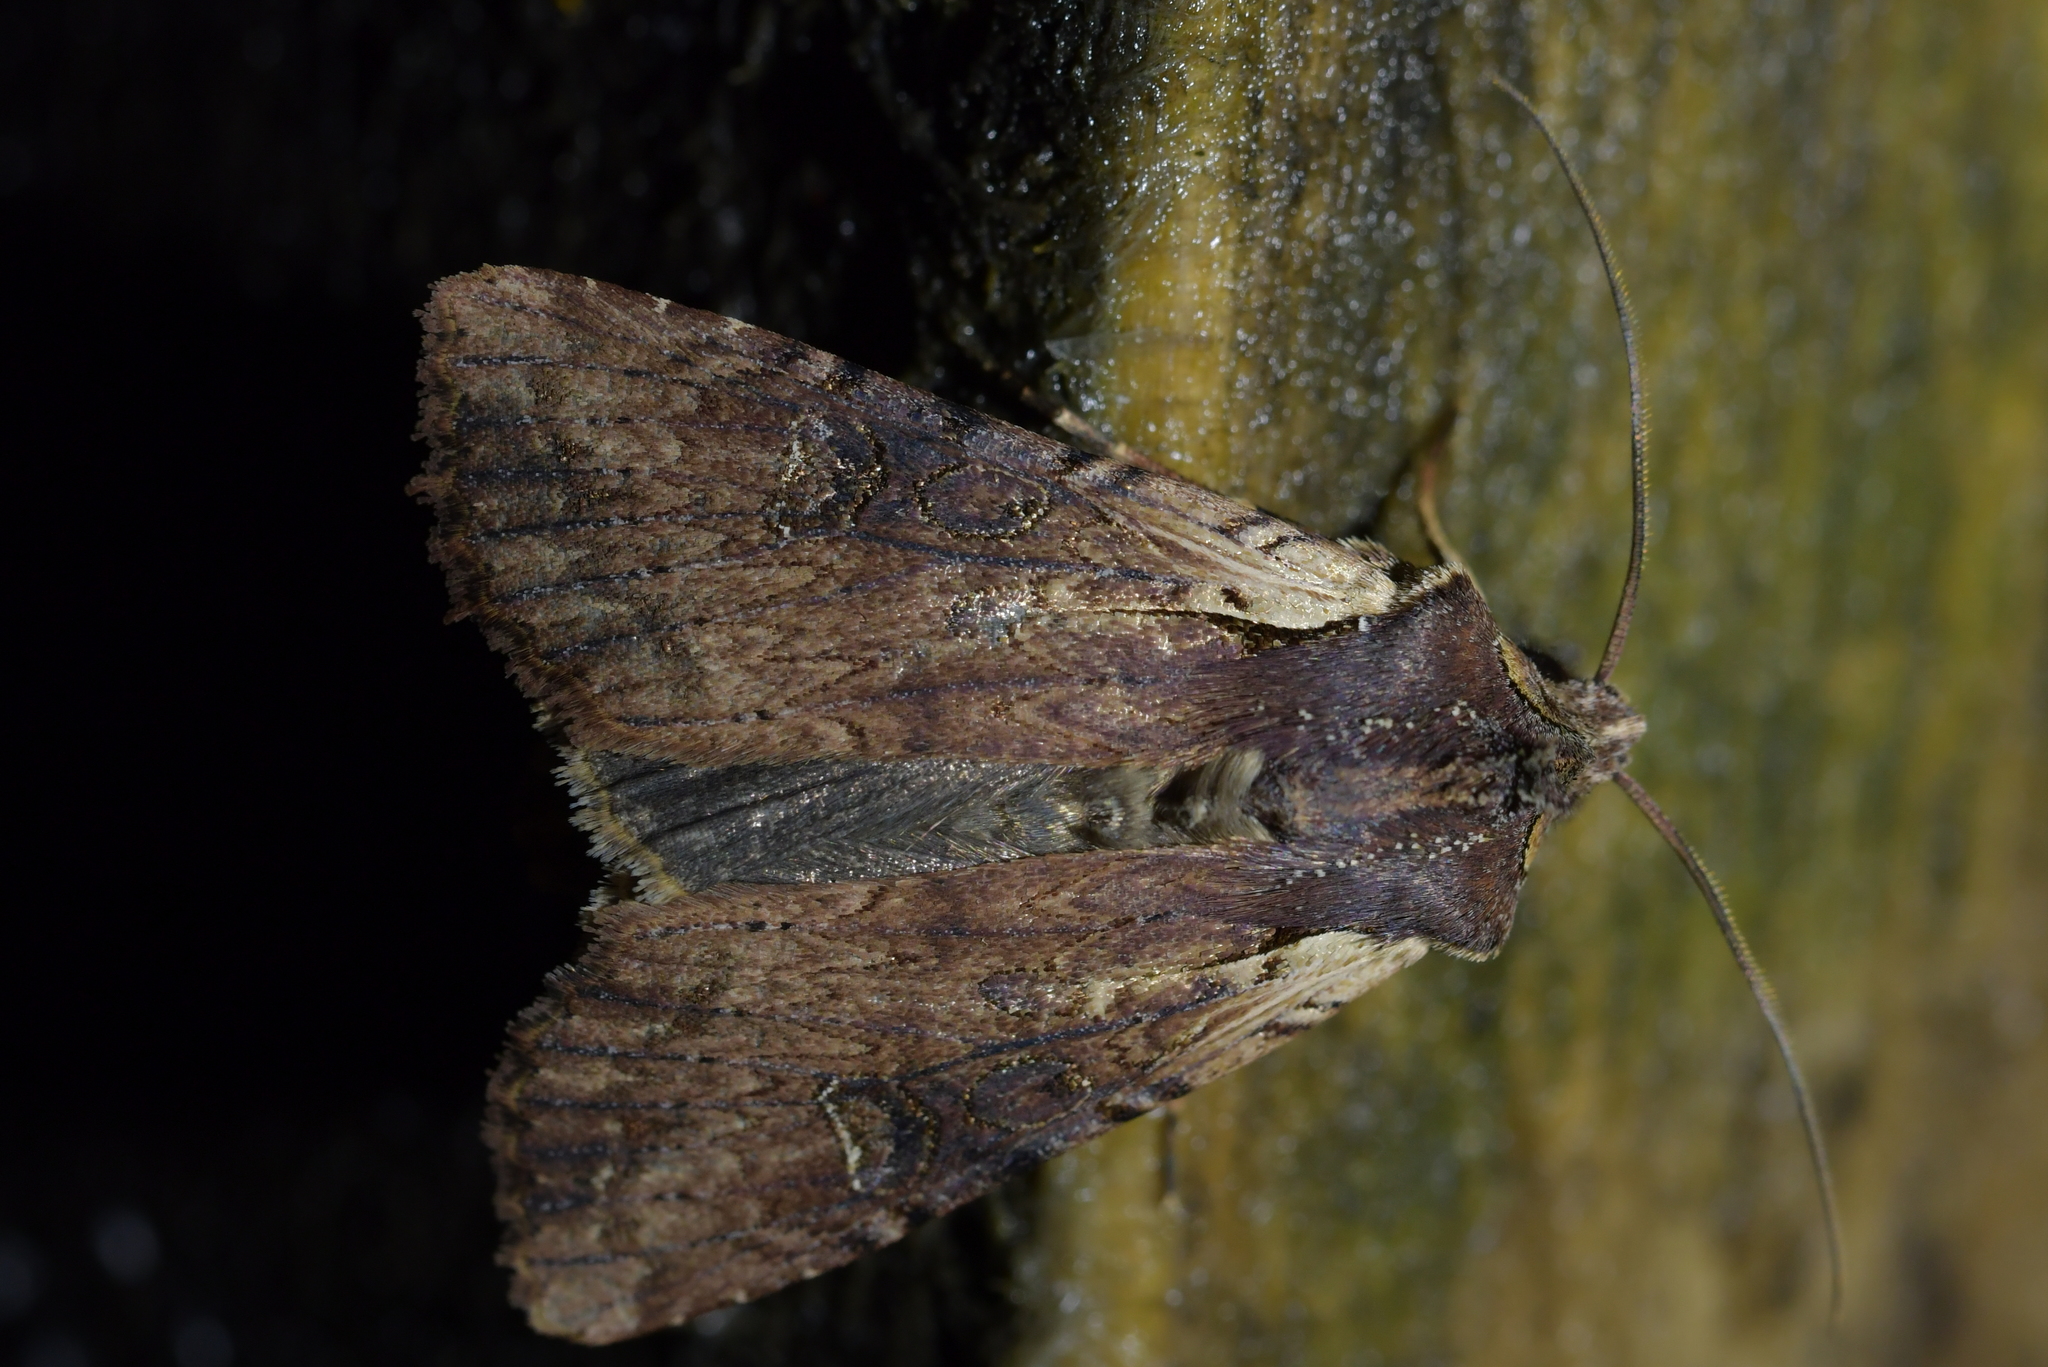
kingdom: Animalia
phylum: Arthropoda
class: Insecta
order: Lepidoptera
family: Noctuidae
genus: Ichneutica
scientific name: Ichneutica omoplaca
